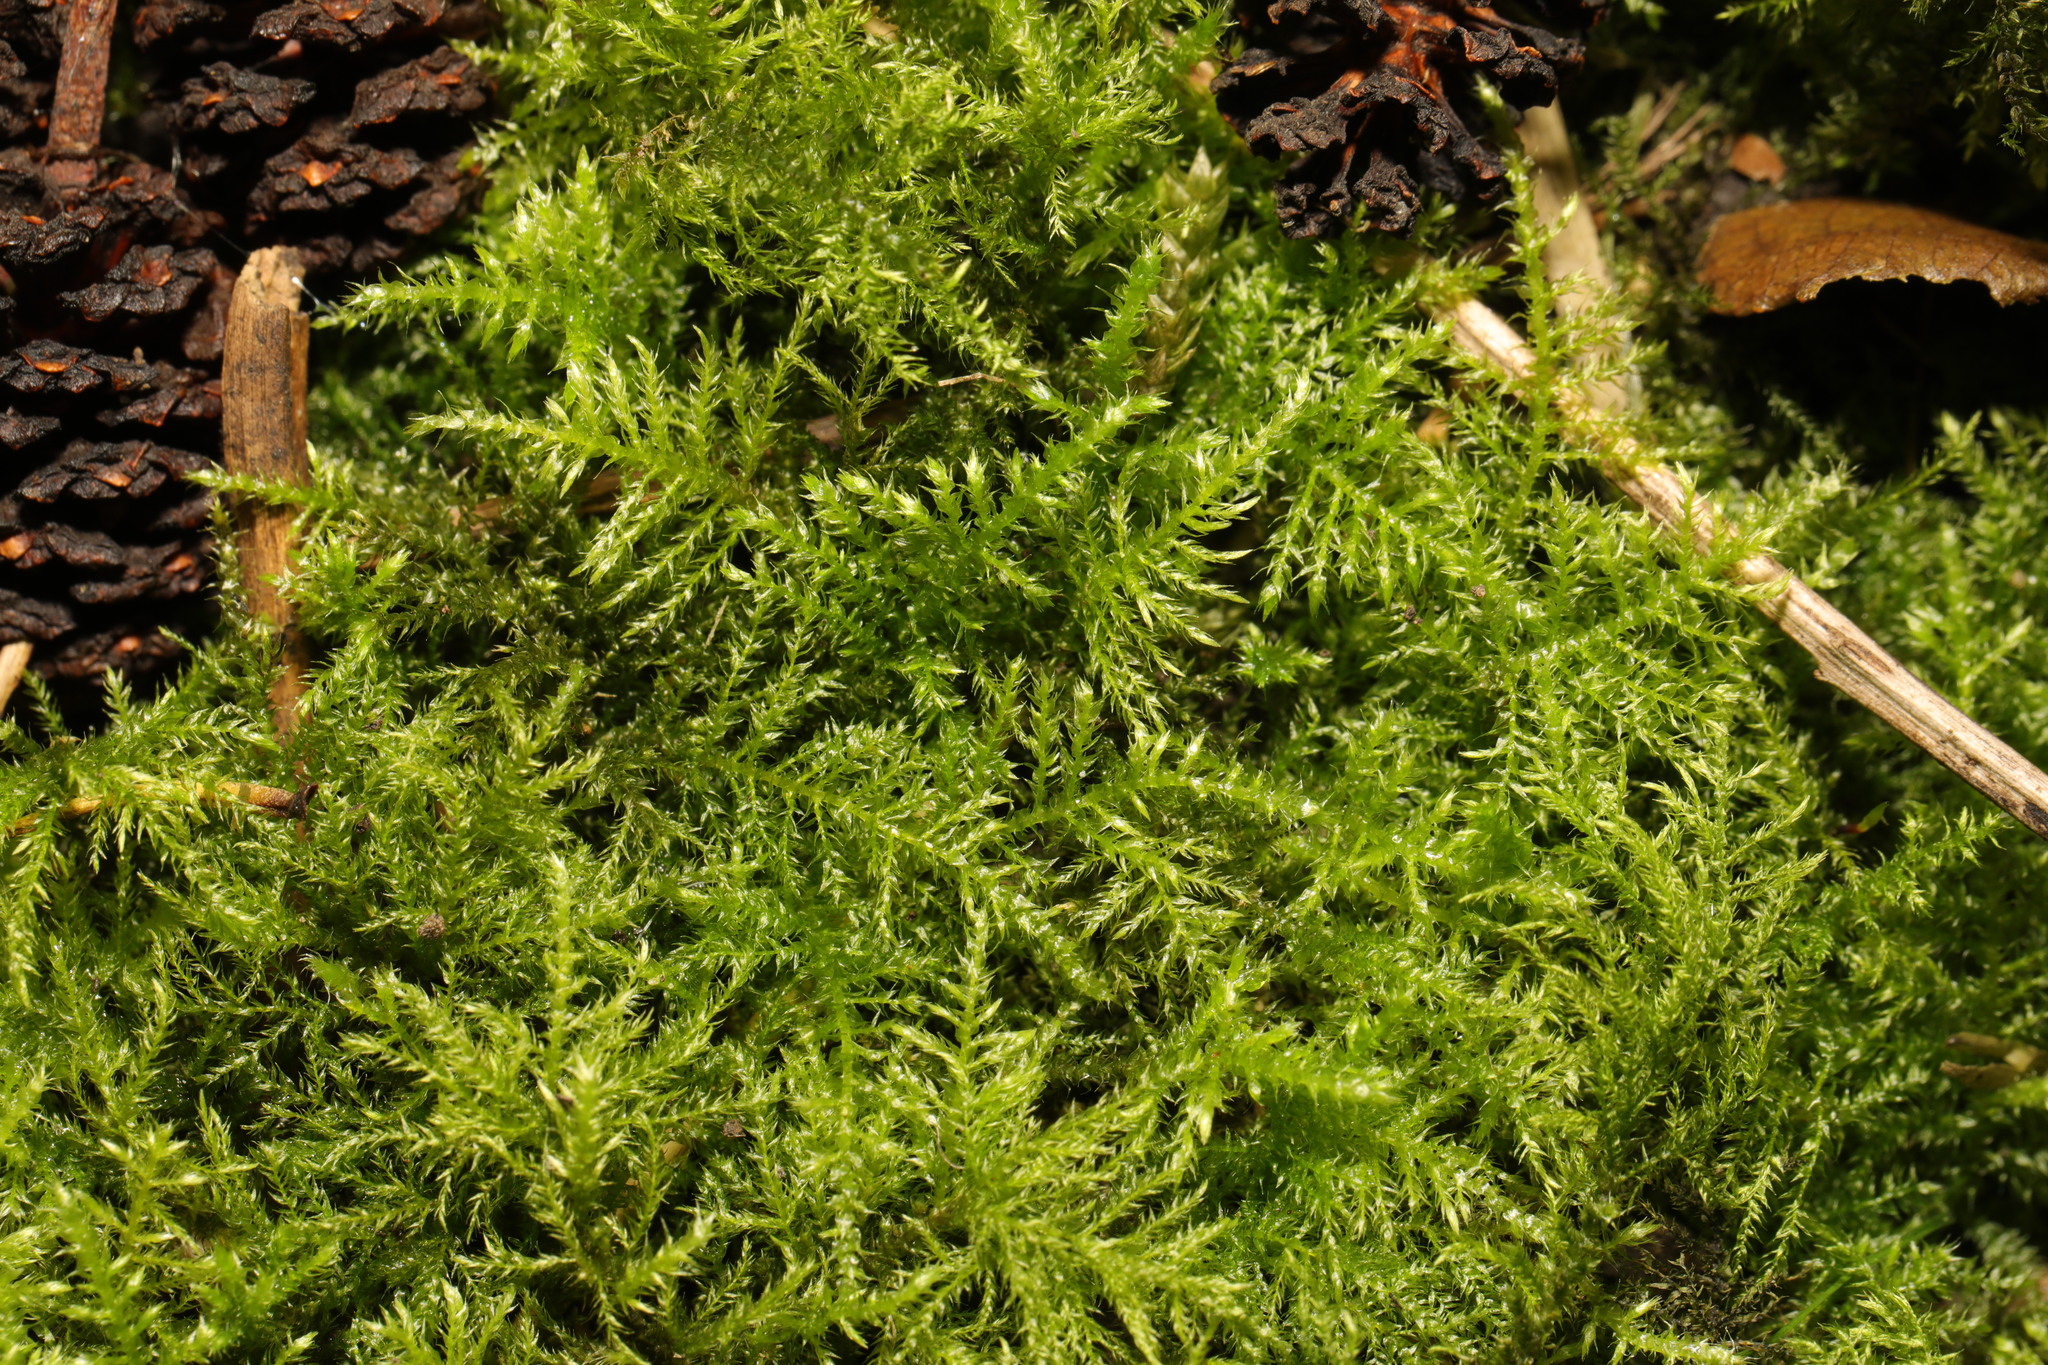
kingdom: Plantae
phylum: Bryophyta
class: Bryopsida
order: Hypnales
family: Brachytheciaceae
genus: Kindbergia
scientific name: Kindbergia praelonga
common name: Slender beaked moss
